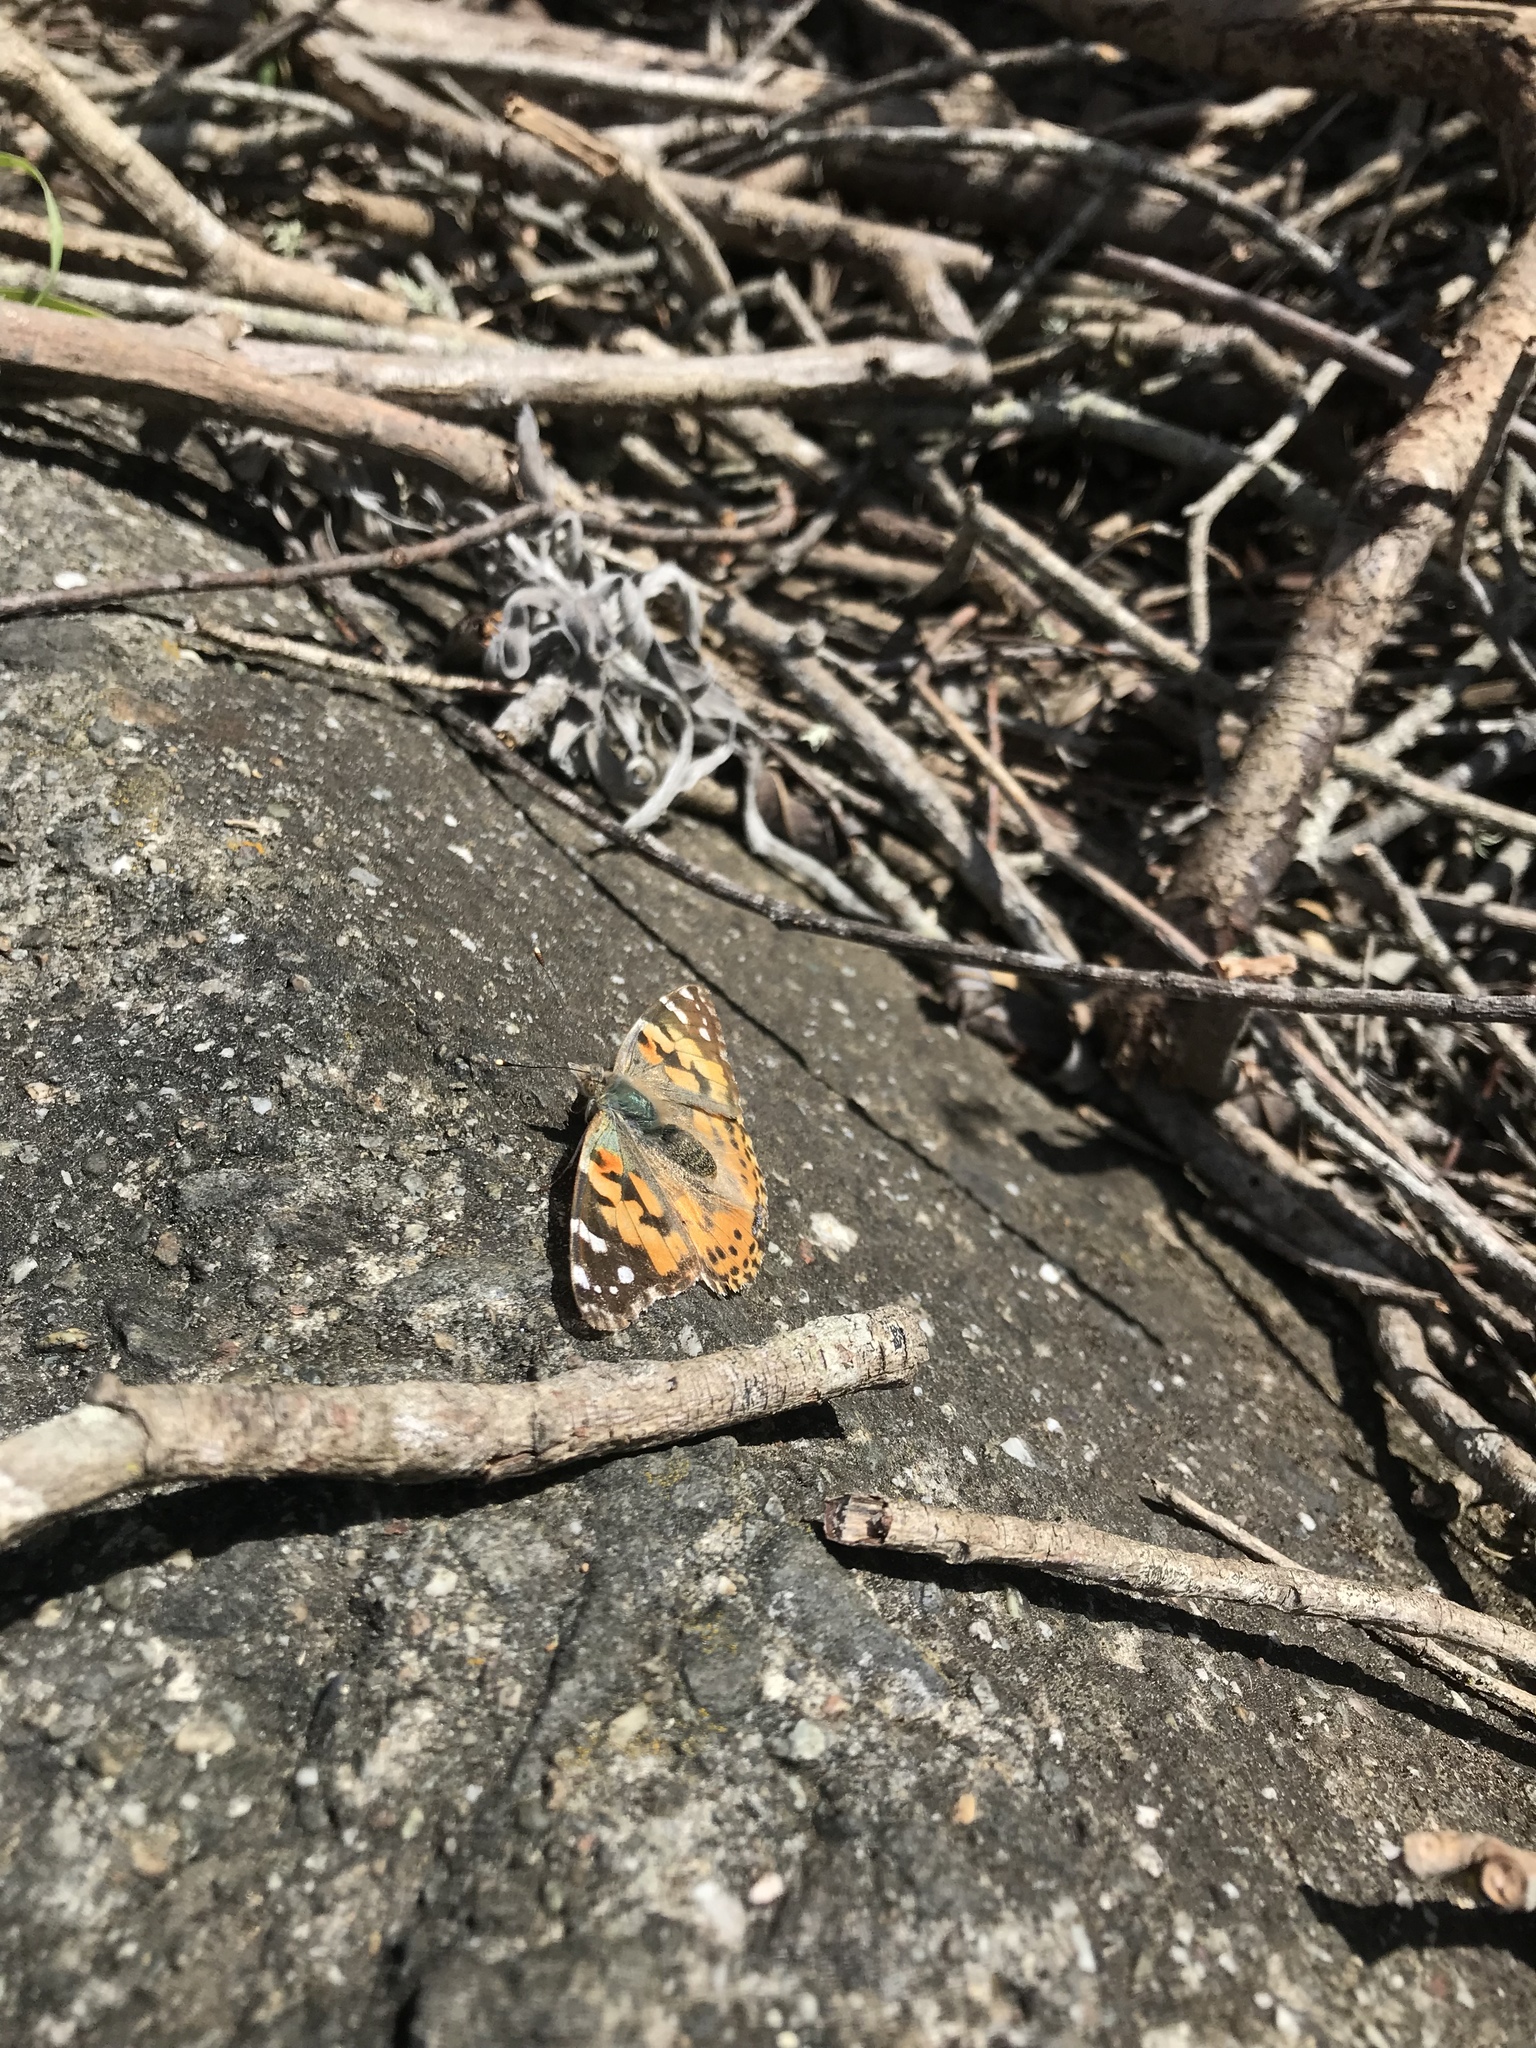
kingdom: Animalia
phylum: Arthropoda
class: Insecta
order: Lepidoptera
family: Nymphalidae
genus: Vanessa
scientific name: Vanessa cardui
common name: Painted lady
